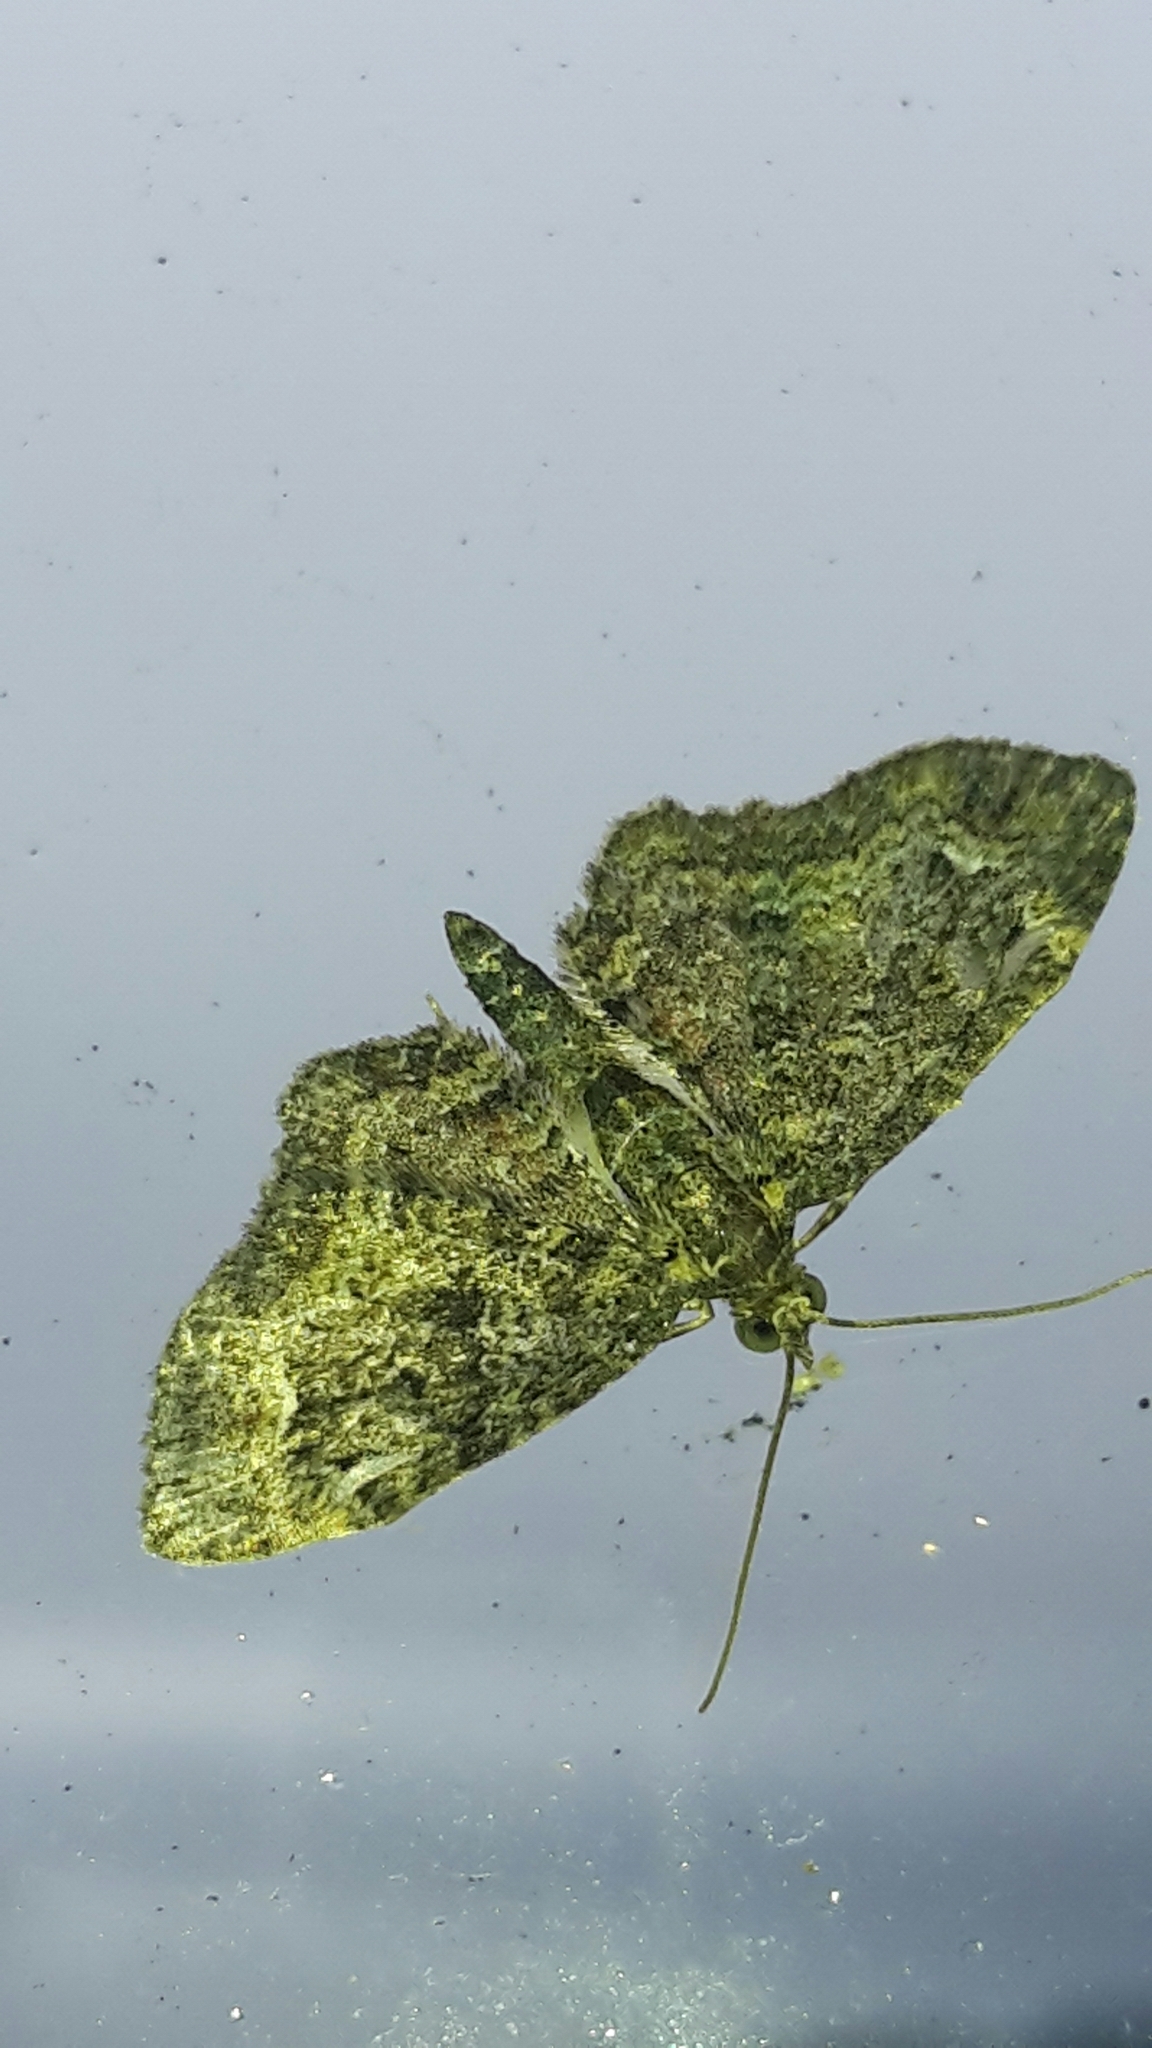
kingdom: Animalia
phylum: Arthropoda
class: Insecta
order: Lepidoptera
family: Geometridae
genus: Pasiphilodes
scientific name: Pasiphilodes testulata
